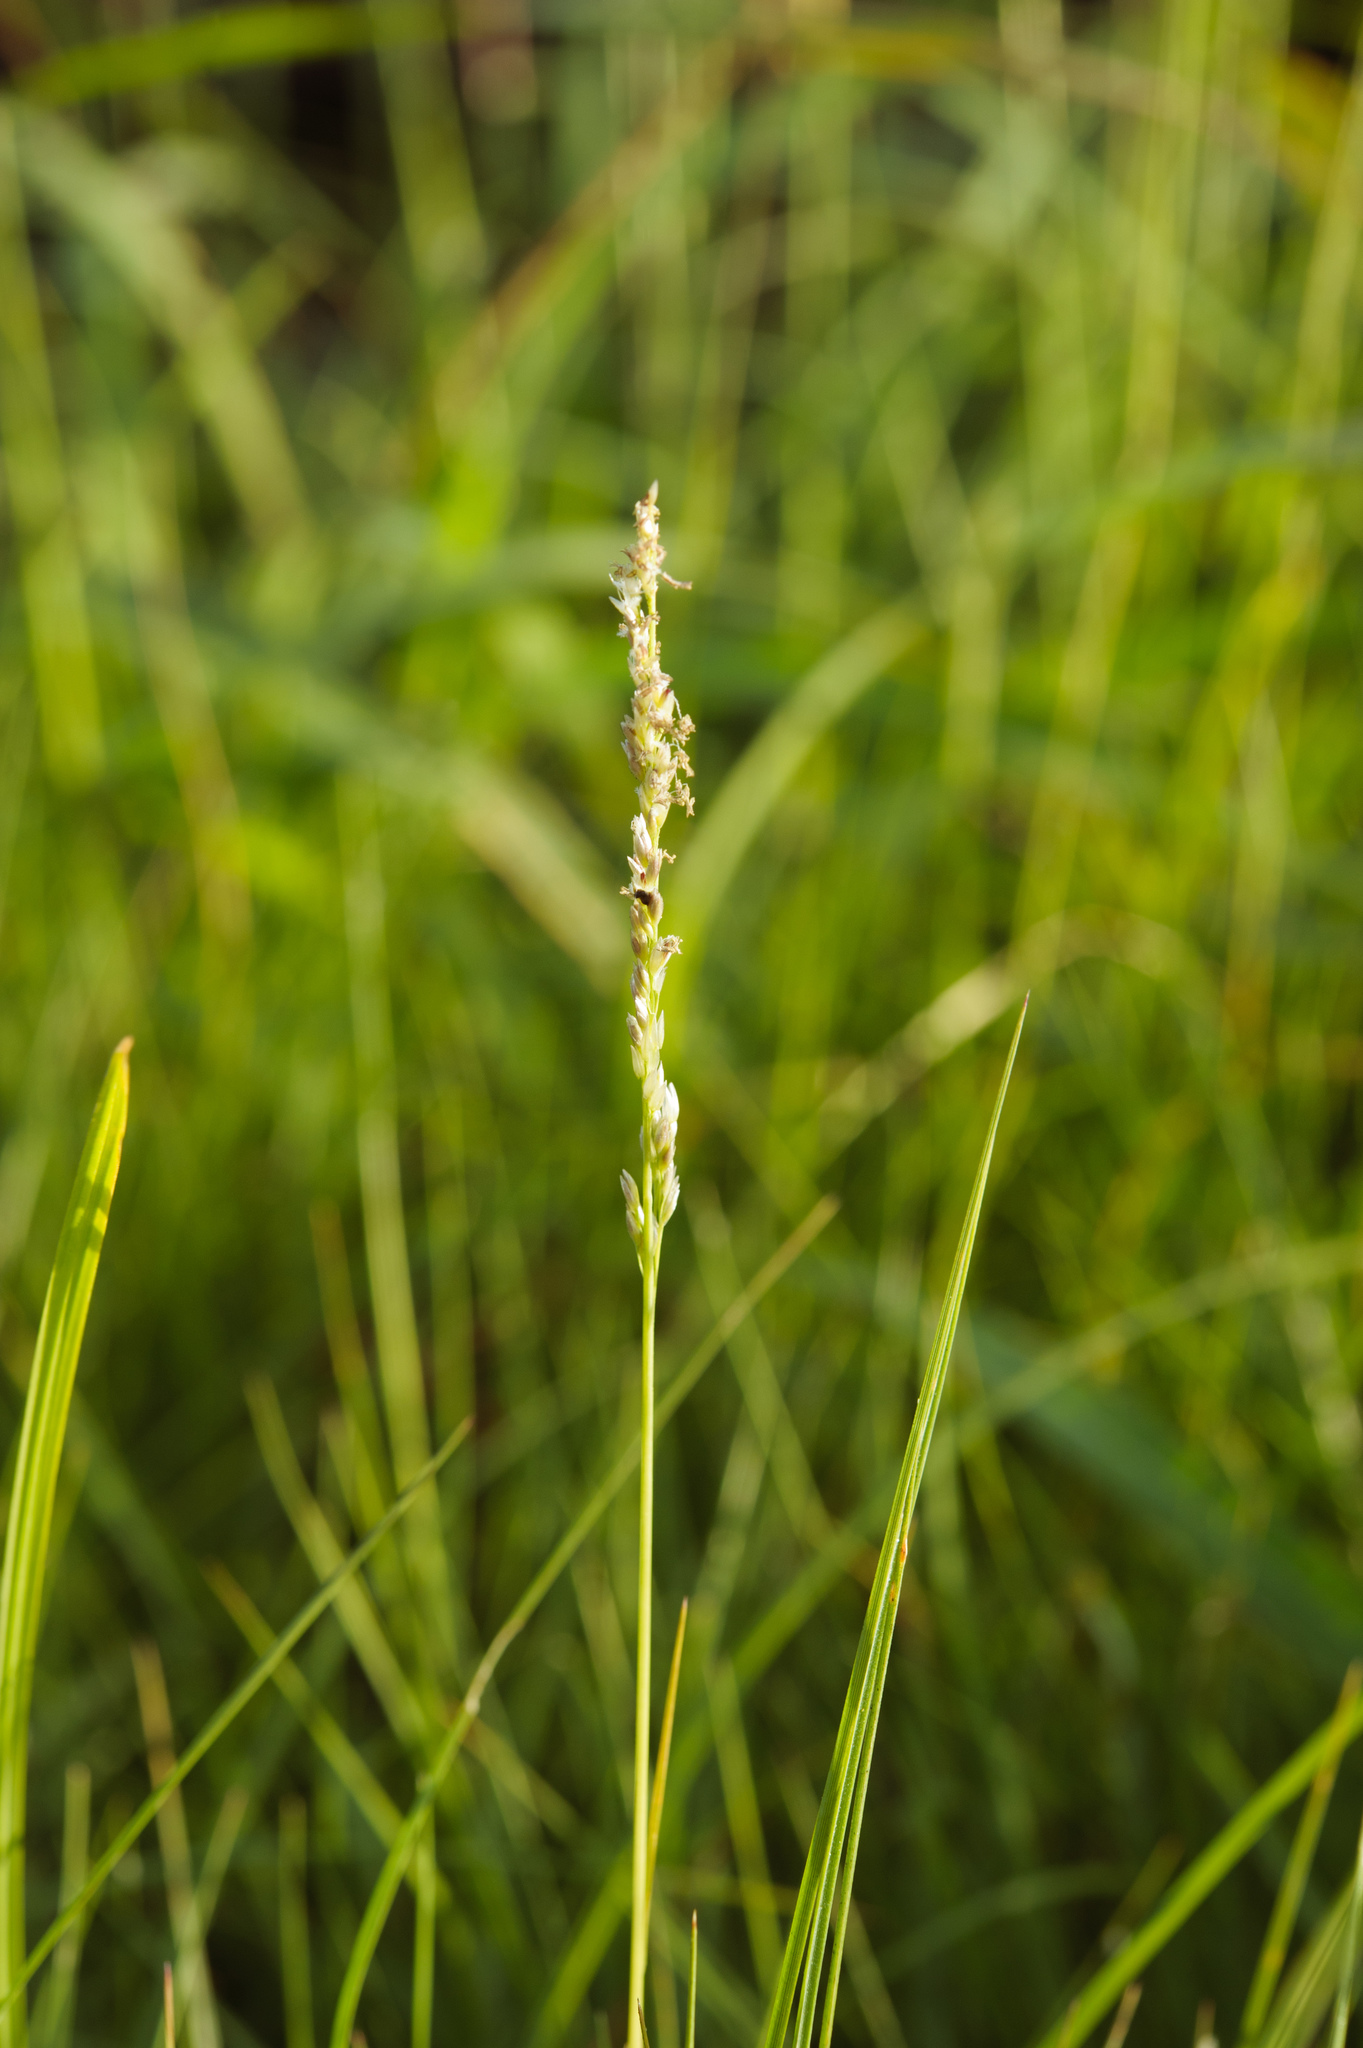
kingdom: Plantae
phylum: Tracheophyta
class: Liliopsida
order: Poales
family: Poaceae
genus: Sporobolus
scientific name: Sporobolus virginicus
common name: Beach dropseed
